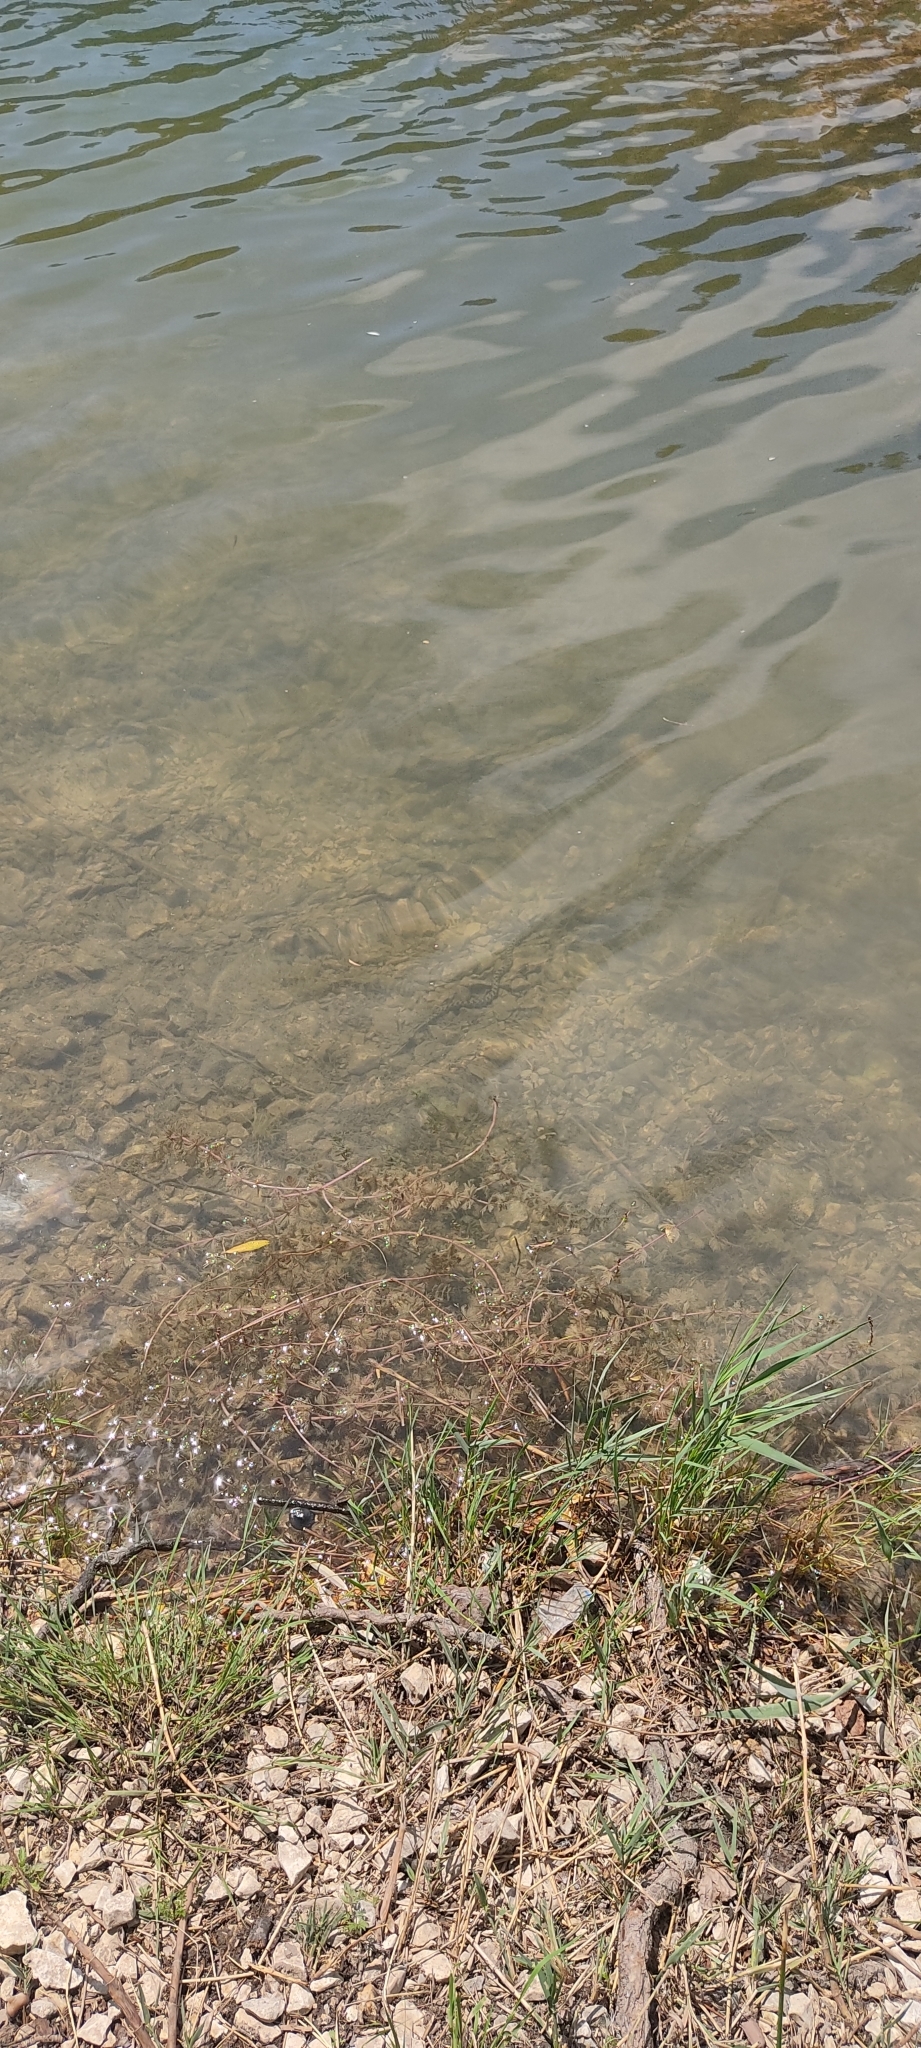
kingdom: Animalia
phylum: Chordata
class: Squamata
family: Colubridae
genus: Natrix
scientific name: Natrix maura
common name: Viperine water snake
